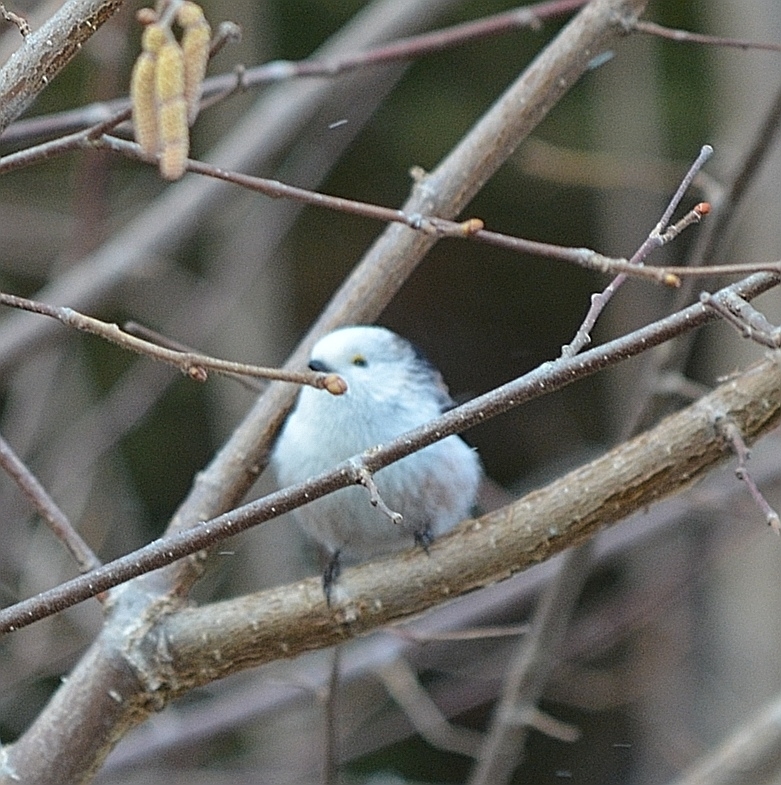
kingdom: Animalia
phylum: Chordata
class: Aves
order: Passeriformes
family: Aegithalidae
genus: Aegithalos
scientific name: Aegithalos caudatus
